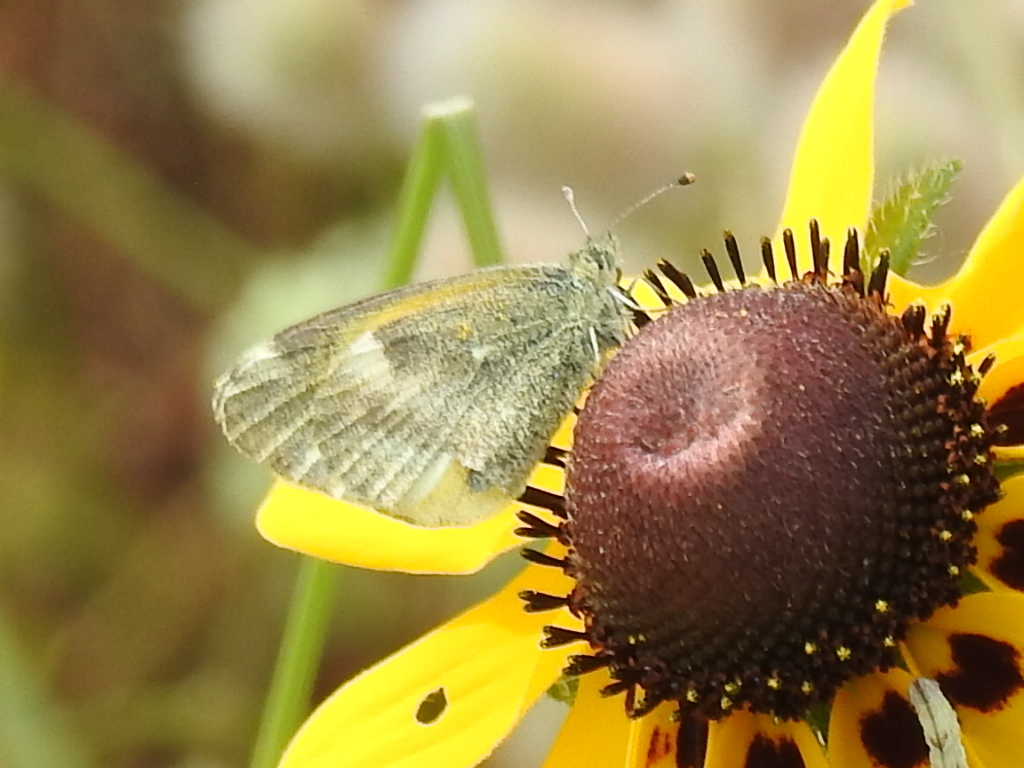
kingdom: Animalia
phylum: Arthropoda
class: Insecta
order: Lepidoptera
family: Pieridae
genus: Nathalis
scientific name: Nathalis iole
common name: Dainty sulphur
